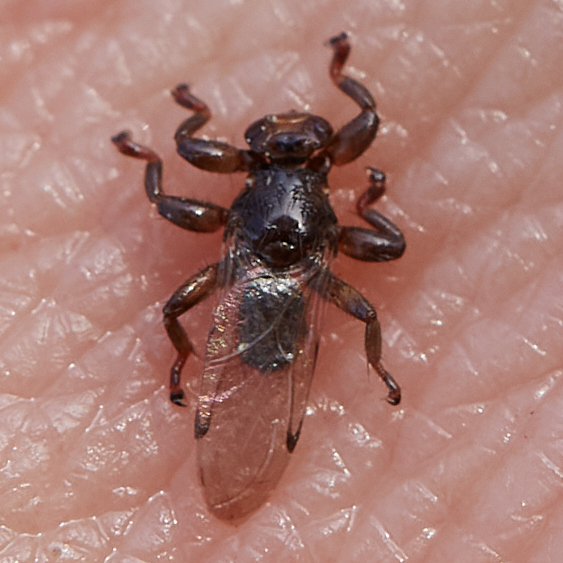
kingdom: Animalia
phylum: Arthropoda
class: Insecta
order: Diptera
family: Hippoboscidae
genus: Lipoptena
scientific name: Lipoptena depressa
